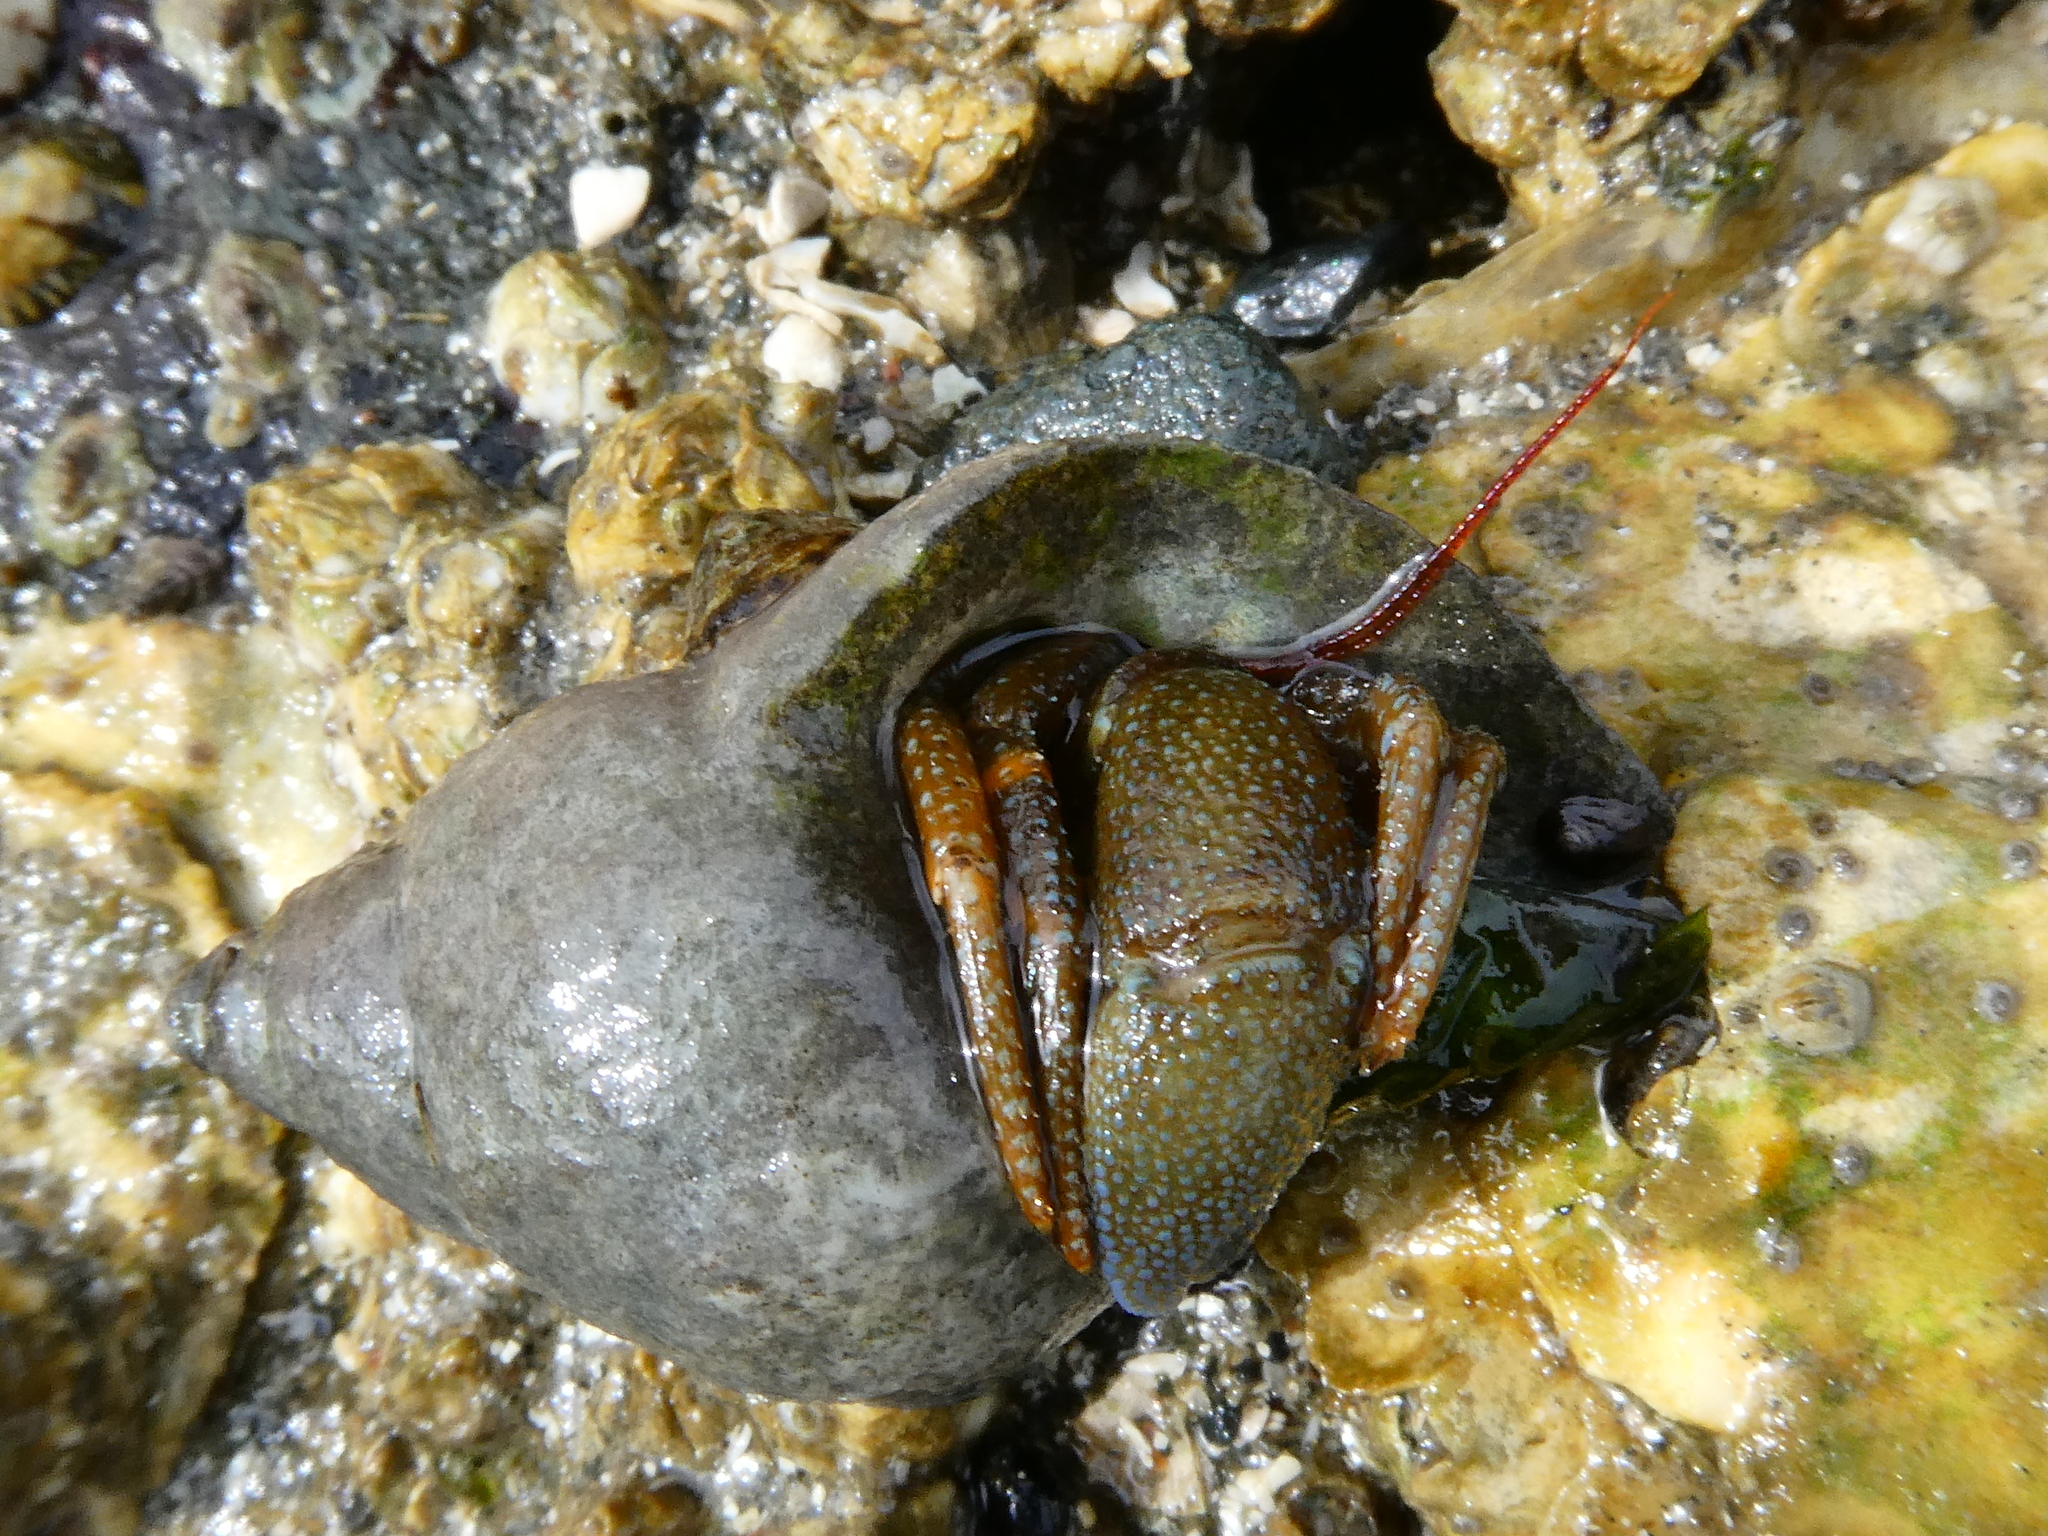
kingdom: Animalia
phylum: Arthropoda
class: Malacostraca
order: Decapoda
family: Paguridae
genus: Pagurus
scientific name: Pagurus granosimanus
